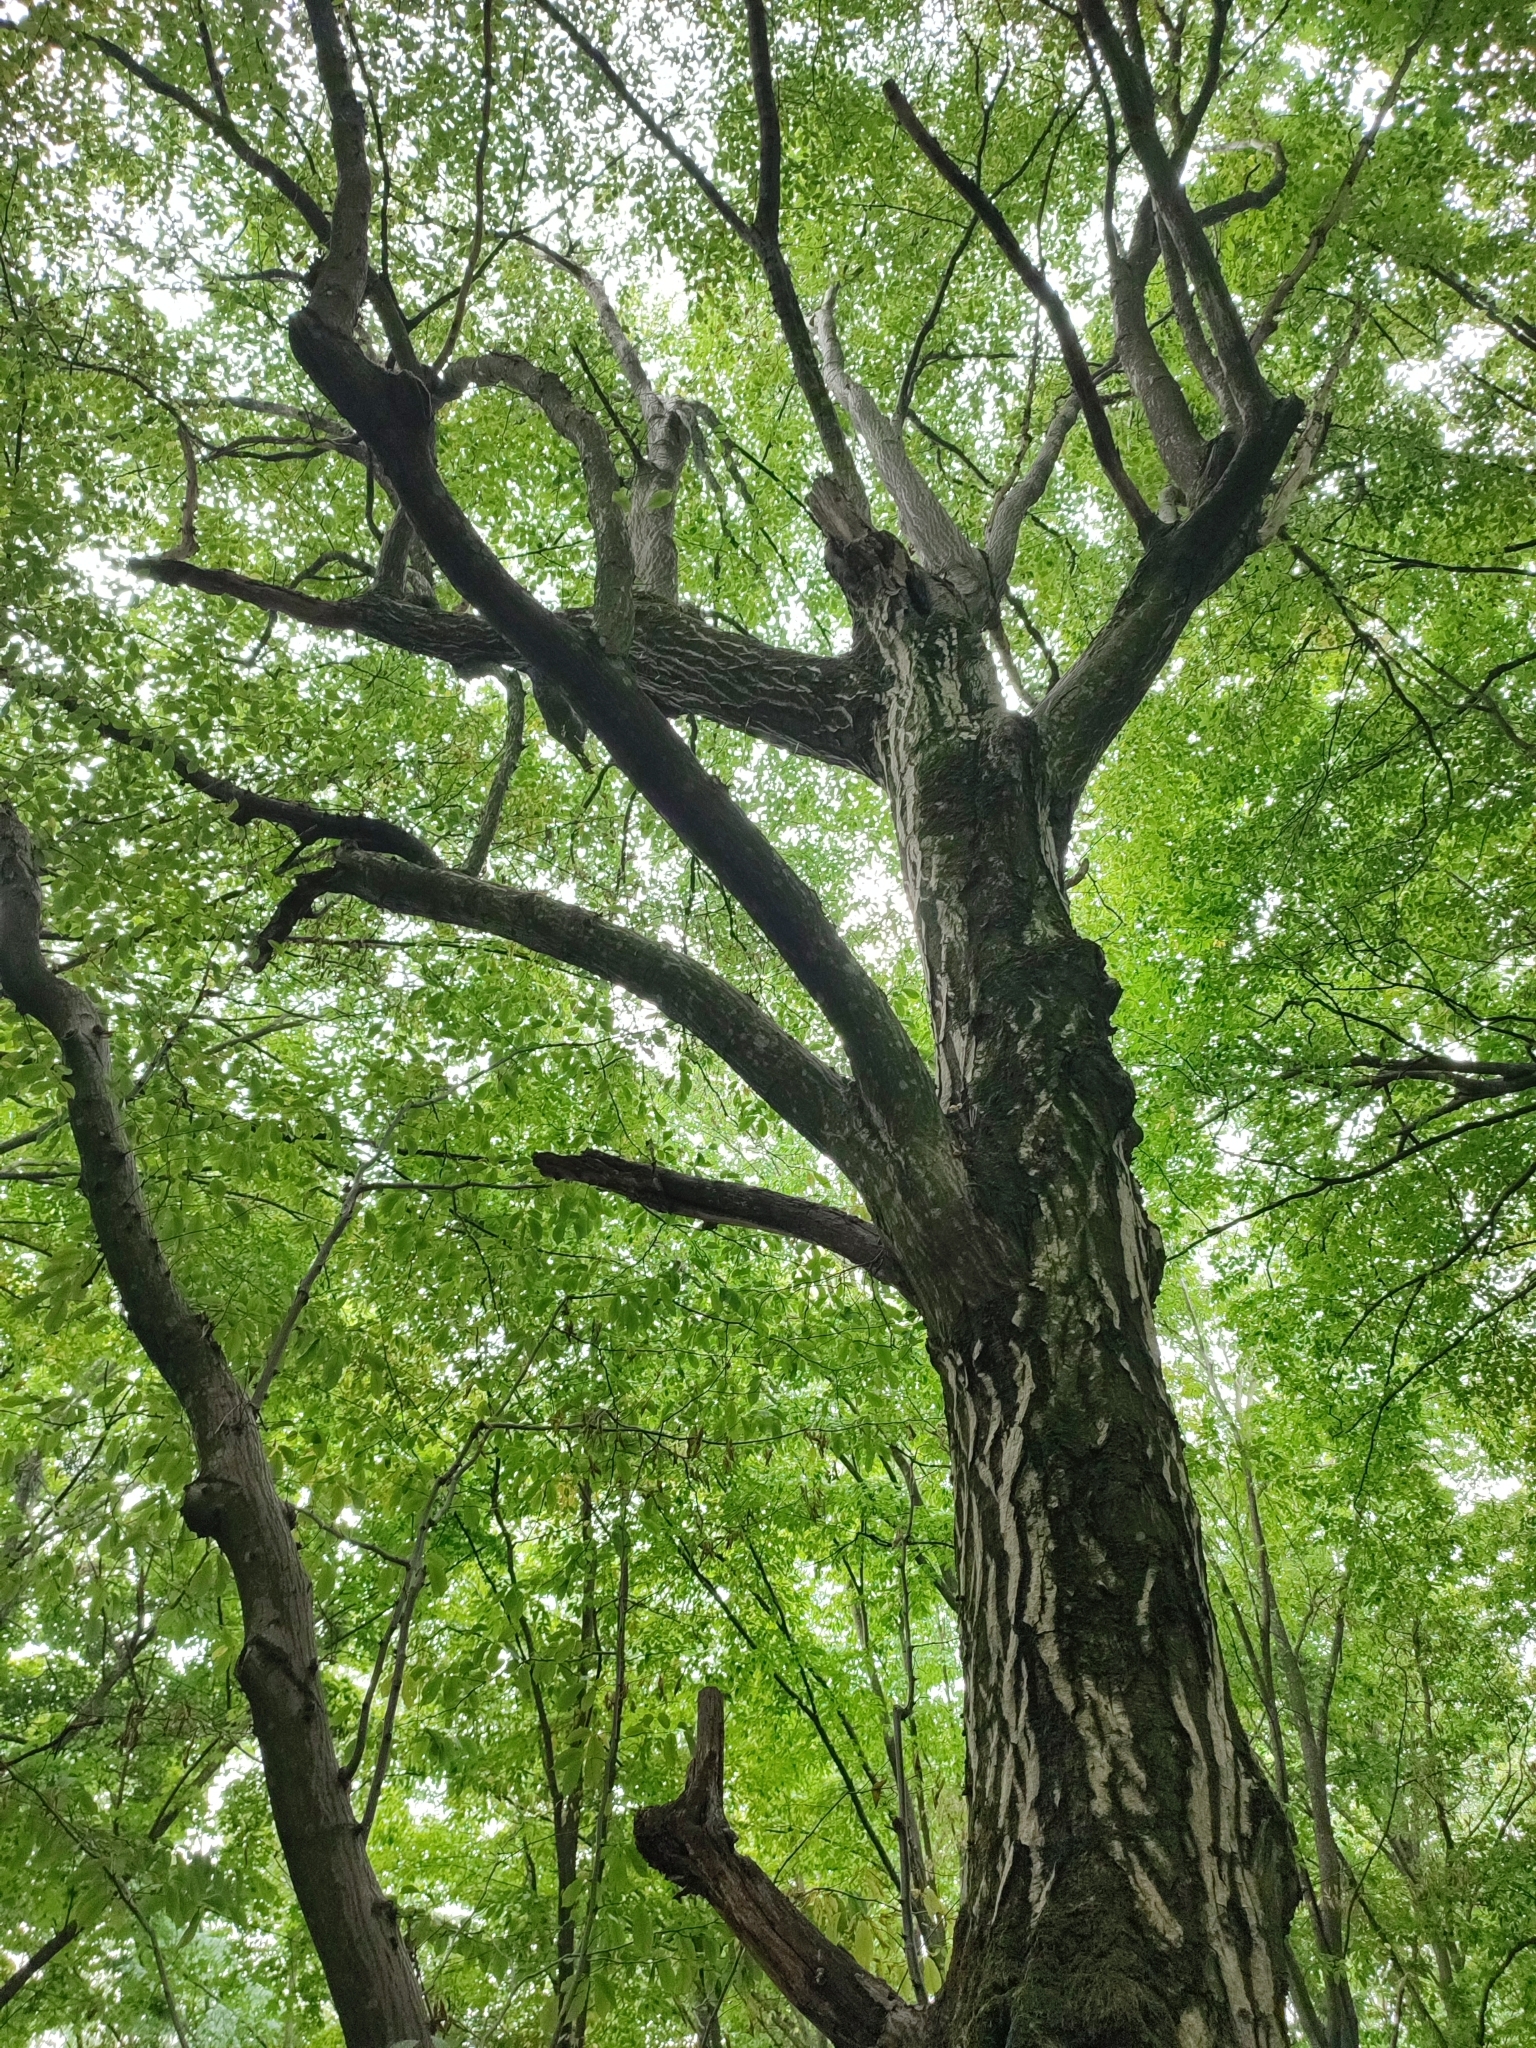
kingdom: Plantae
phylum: Tracheophyta
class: Magnoliopsida
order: Fagales
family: Betulaceae
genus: Carpinus
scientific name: Carpinus betulus
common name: Hornbeam
